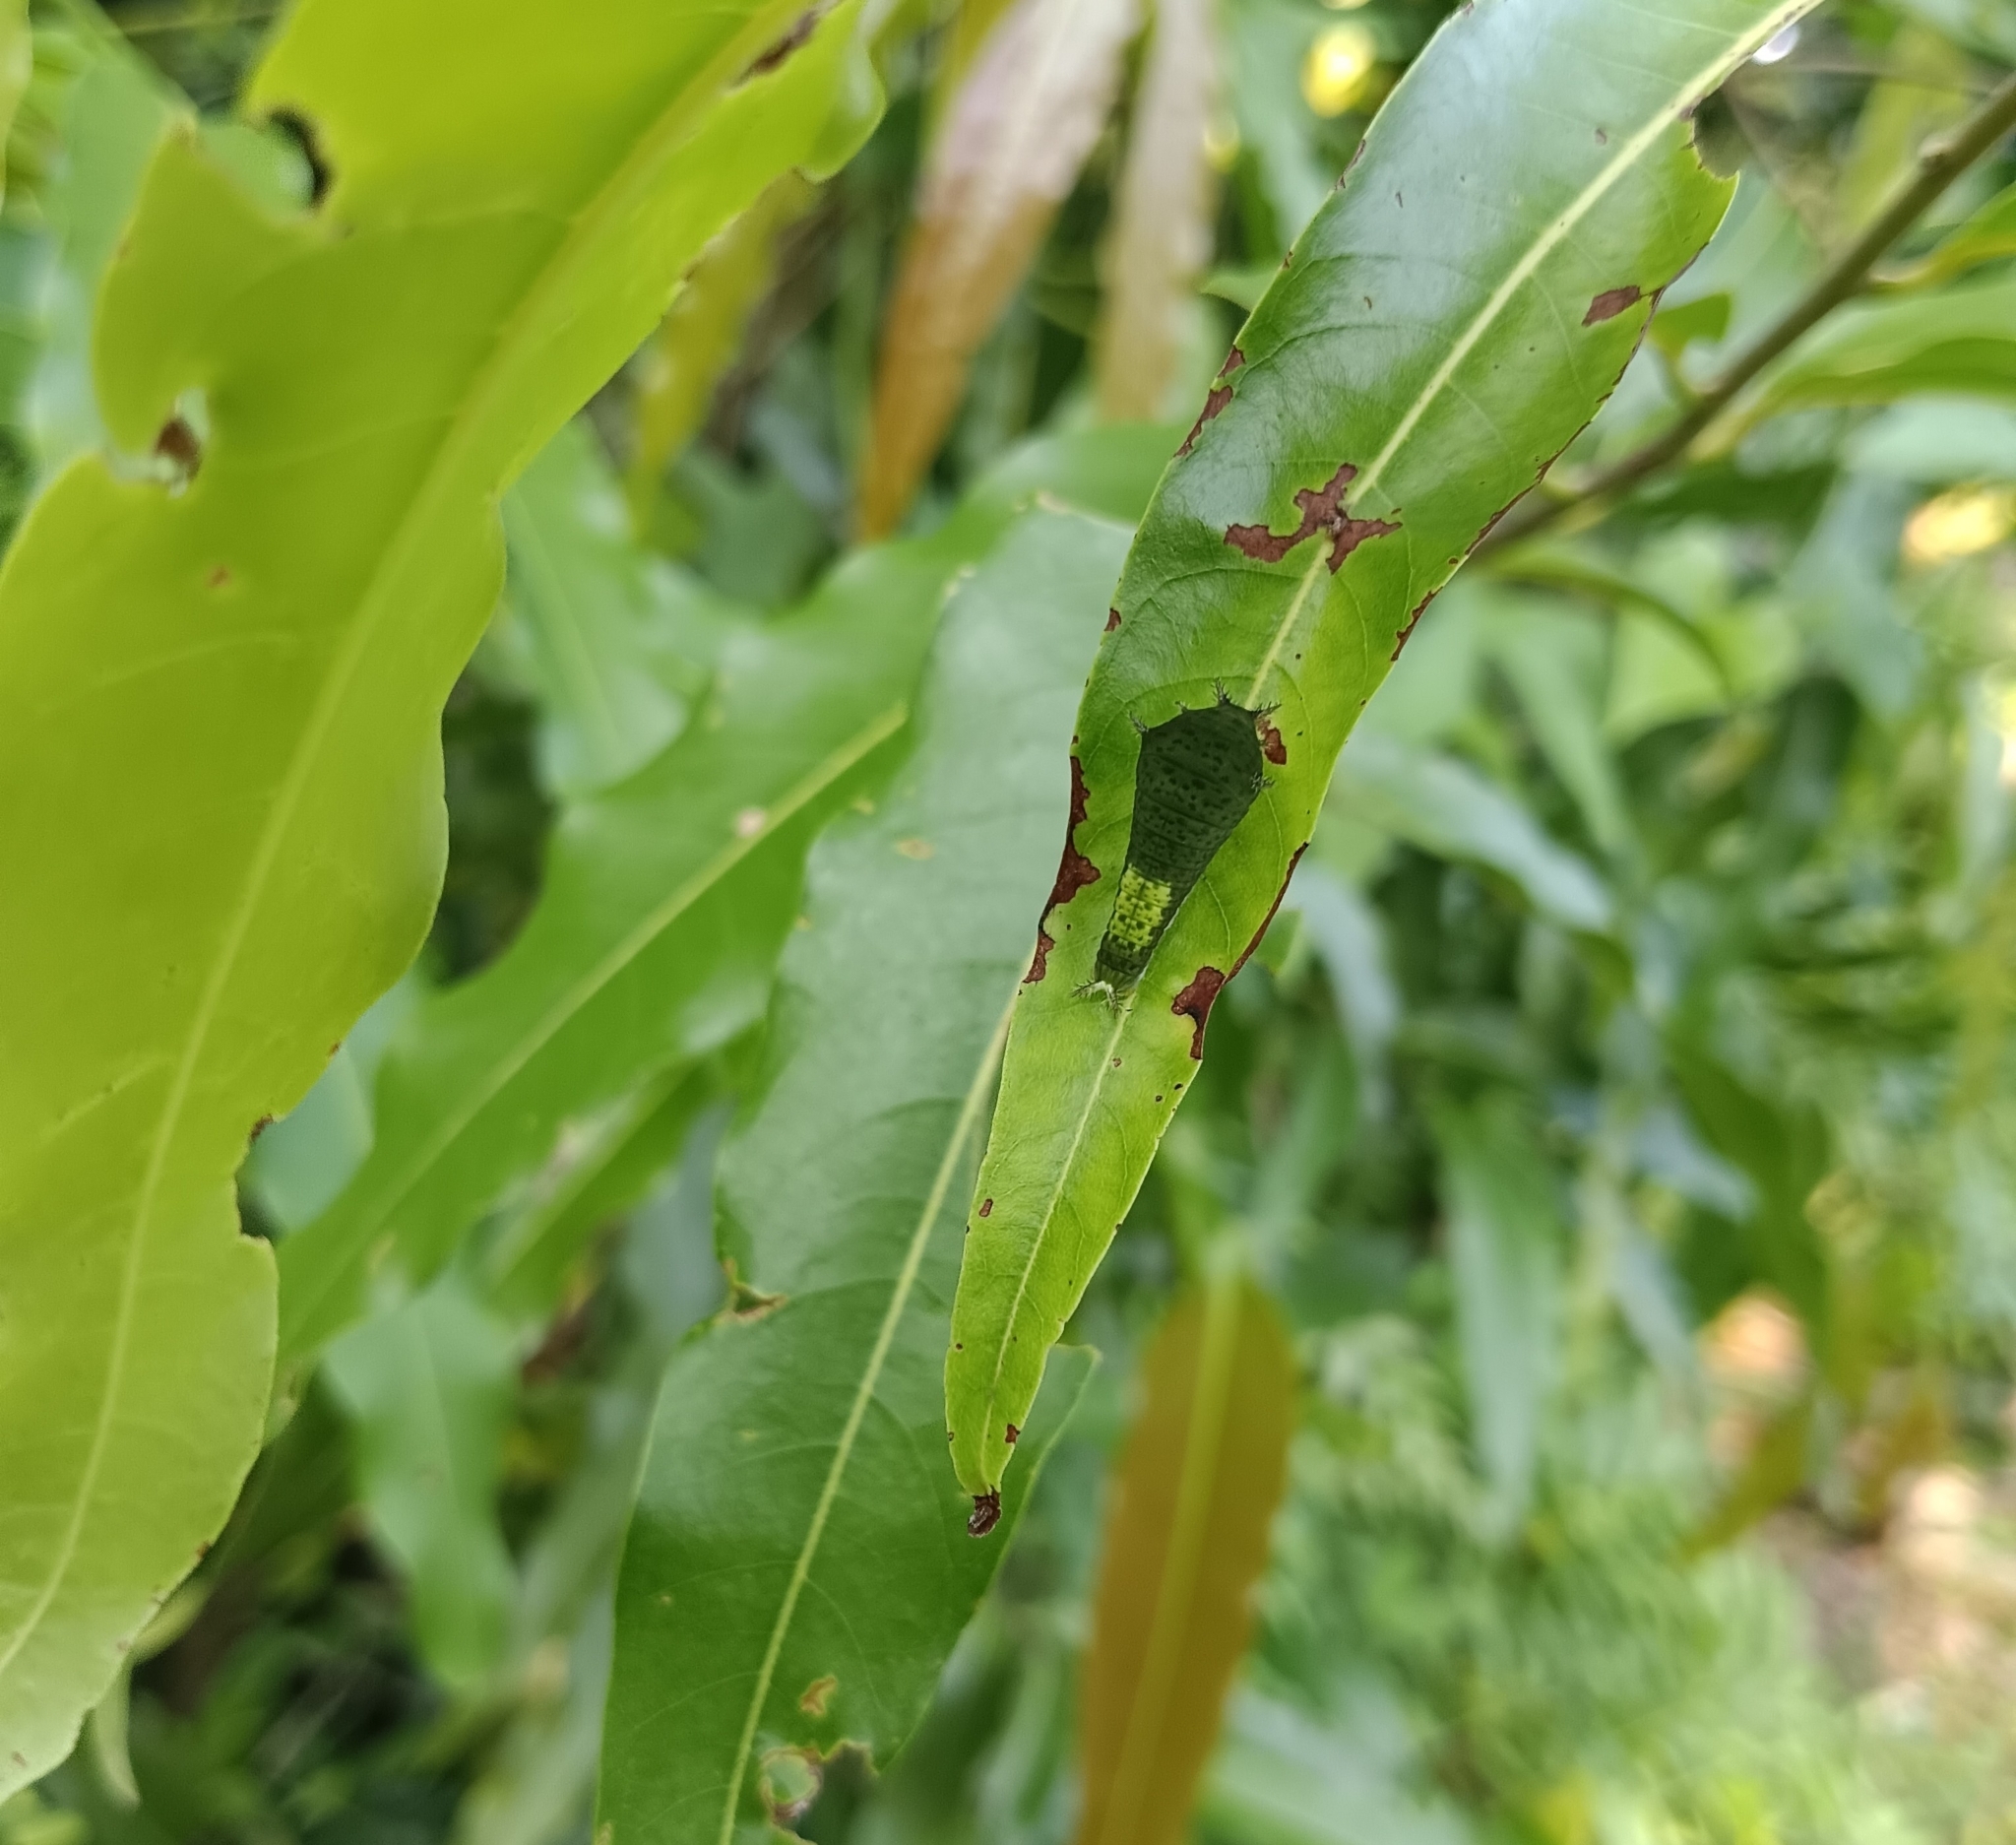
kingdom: Animalia
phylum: Arthropoda
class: Insecta
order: Lepidoptera
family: Papilionidae
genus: Graphium
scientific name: Graphium agamemnon
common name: Tailed jay
